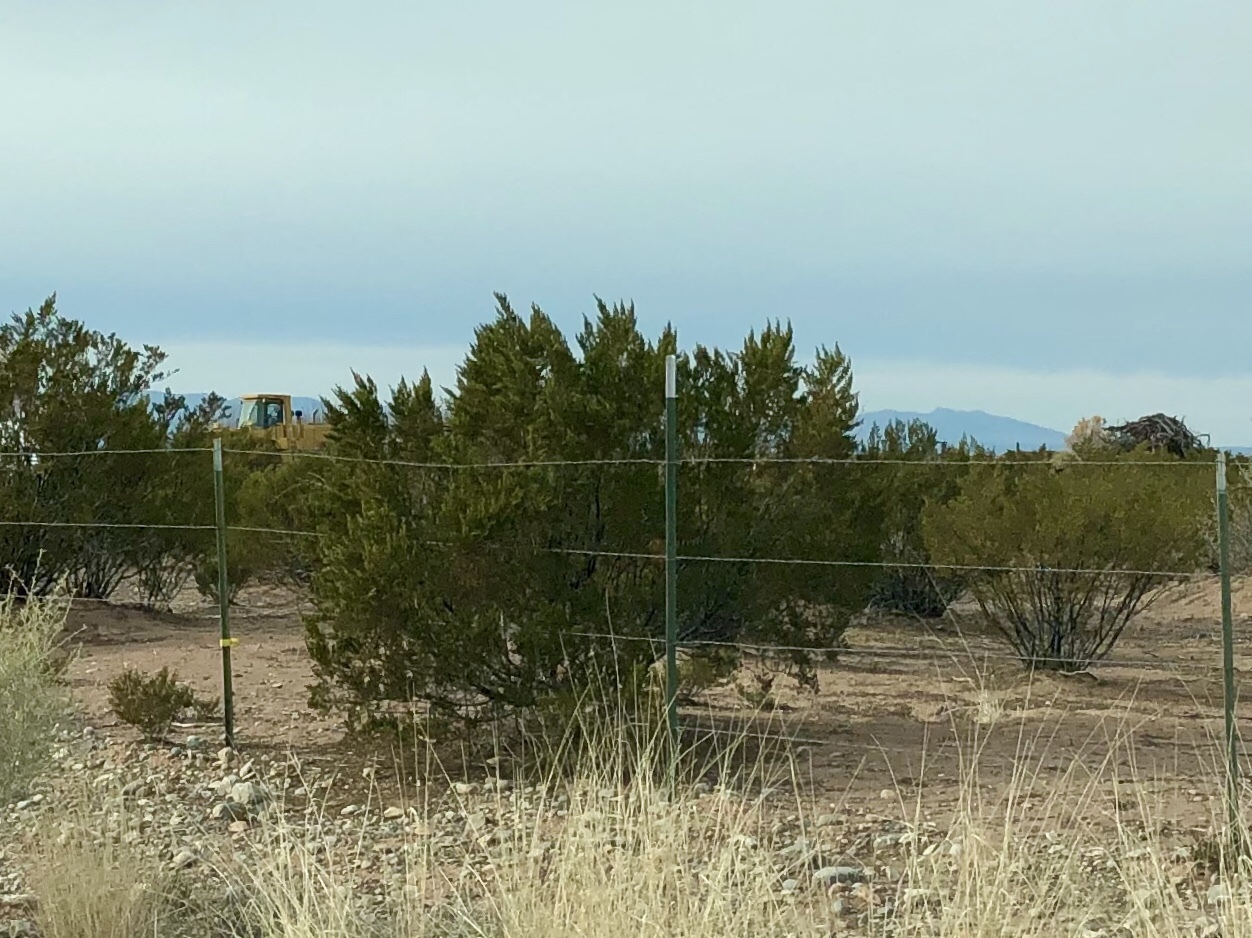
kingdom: Plantae
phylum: Tracheophyta
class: Magnoliopsida
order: Zygophyllales
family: Zygophyllaceae
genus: Larrea
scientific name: Larrea tridentata
